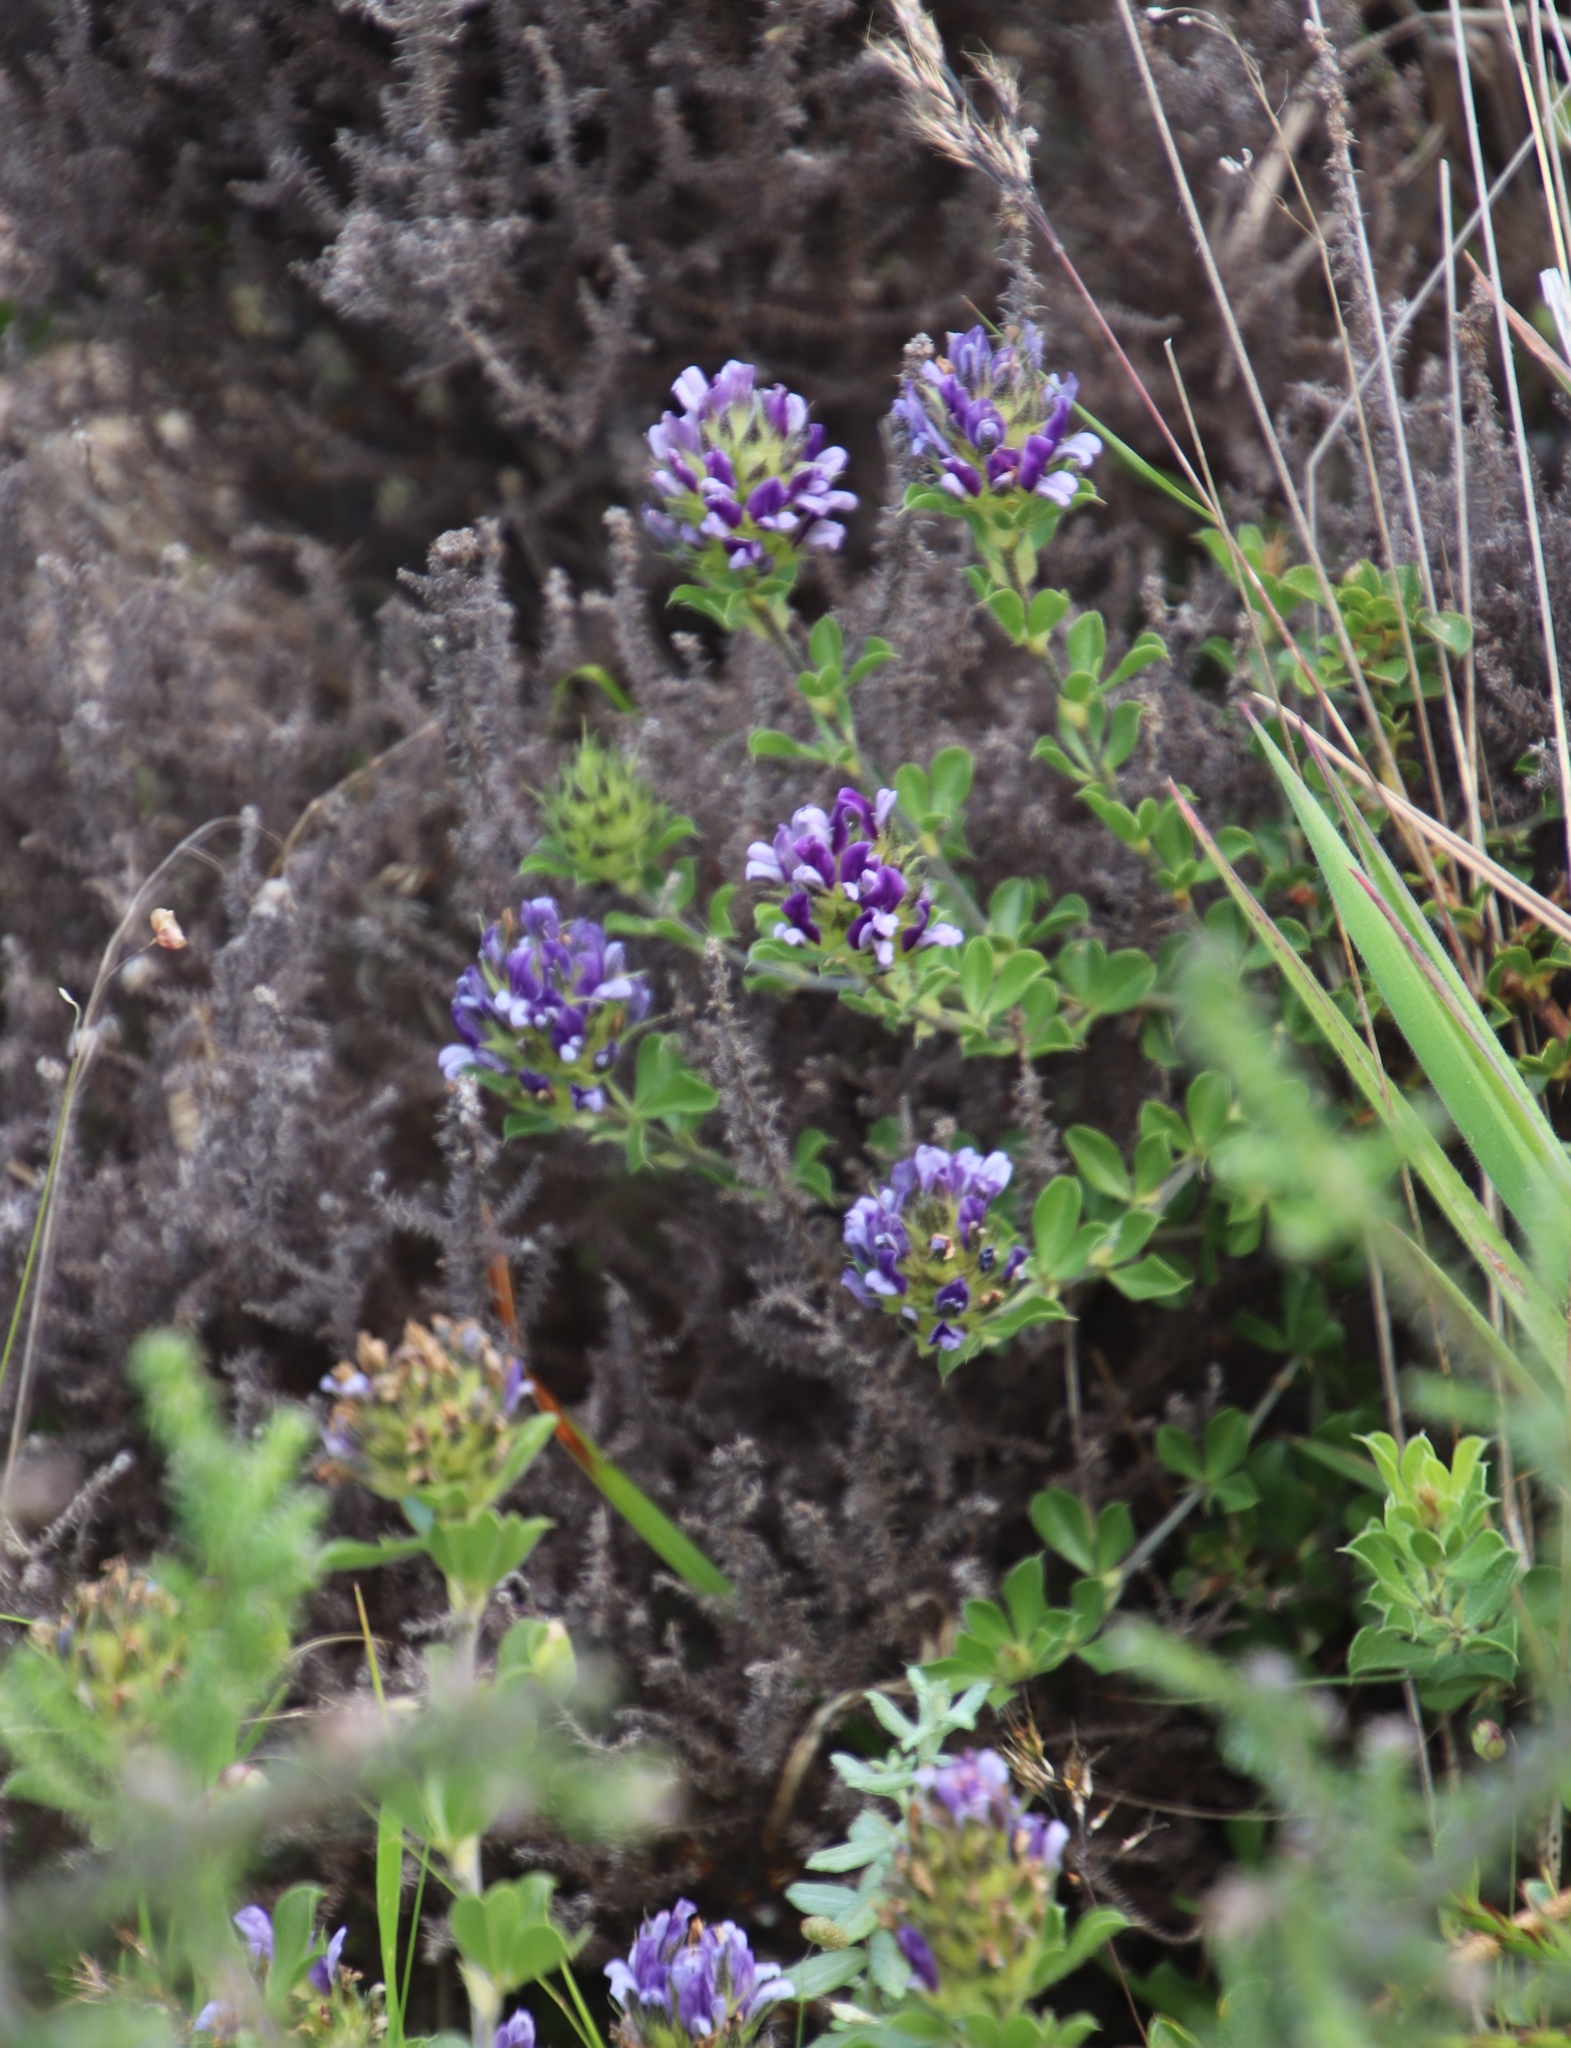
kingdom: Plantae
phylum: Tracheophyta
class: Magnoliopsida
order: Fabales
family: Fabaceae
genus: Psoralea
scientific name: Psoralea fruticans
